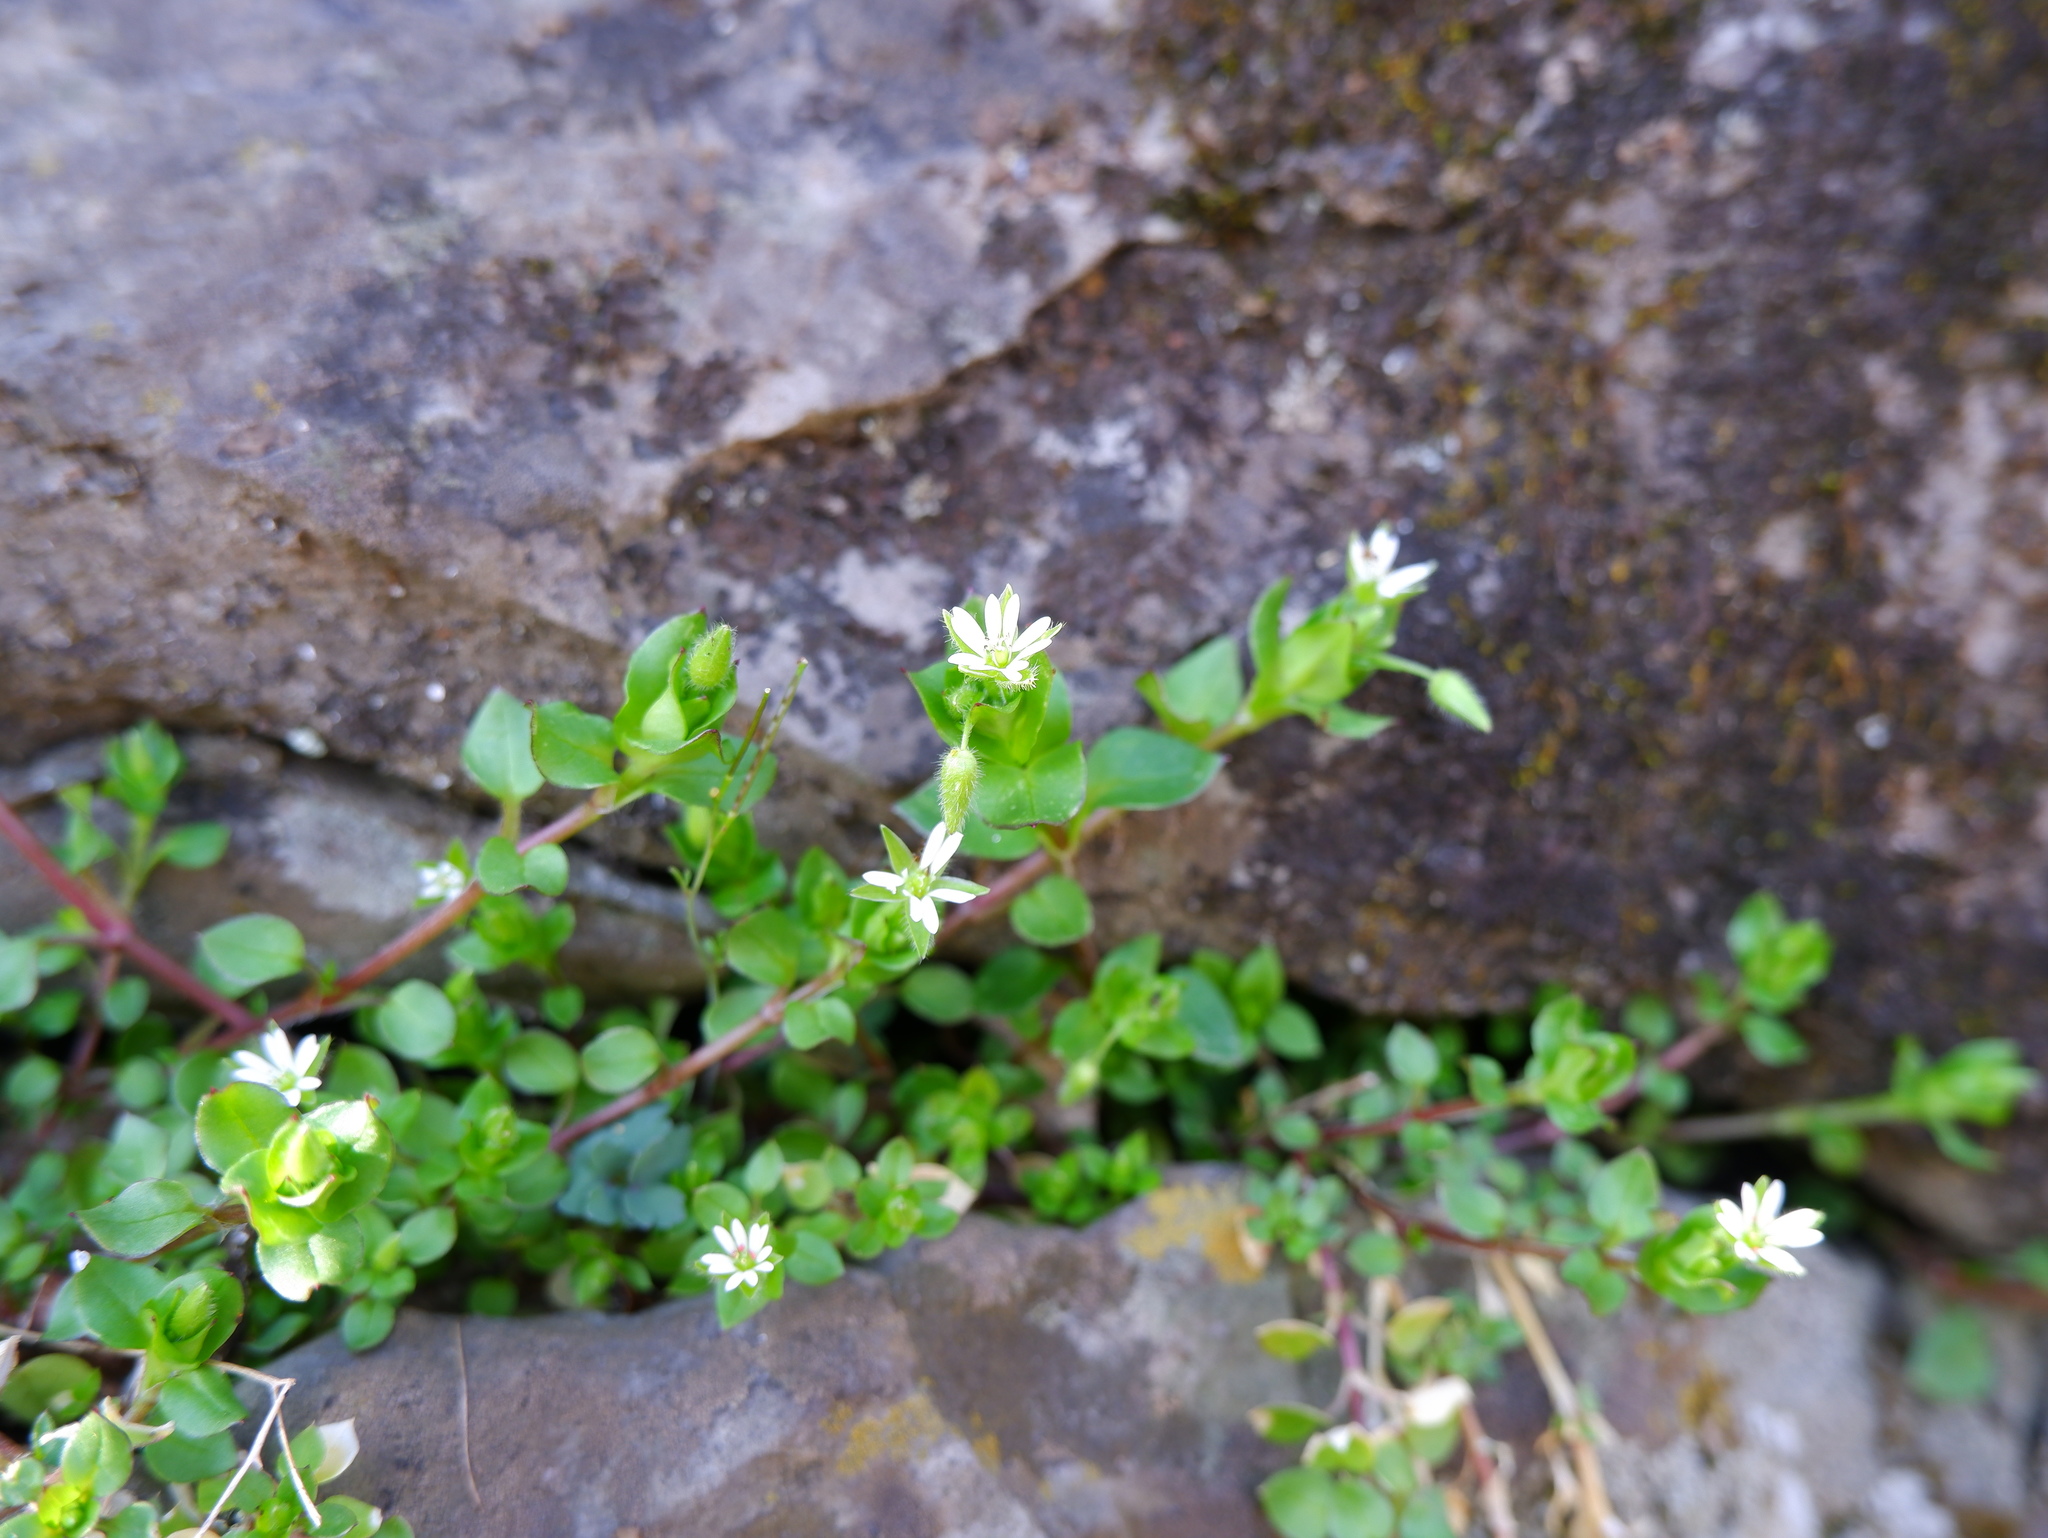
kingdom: Plantae
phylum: Tracheophyta
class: Magnoliopsida
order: Caryophyllales
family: Caryophyllaceae
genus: Stellaria
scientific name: Stellaria media
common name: Common chickweed
